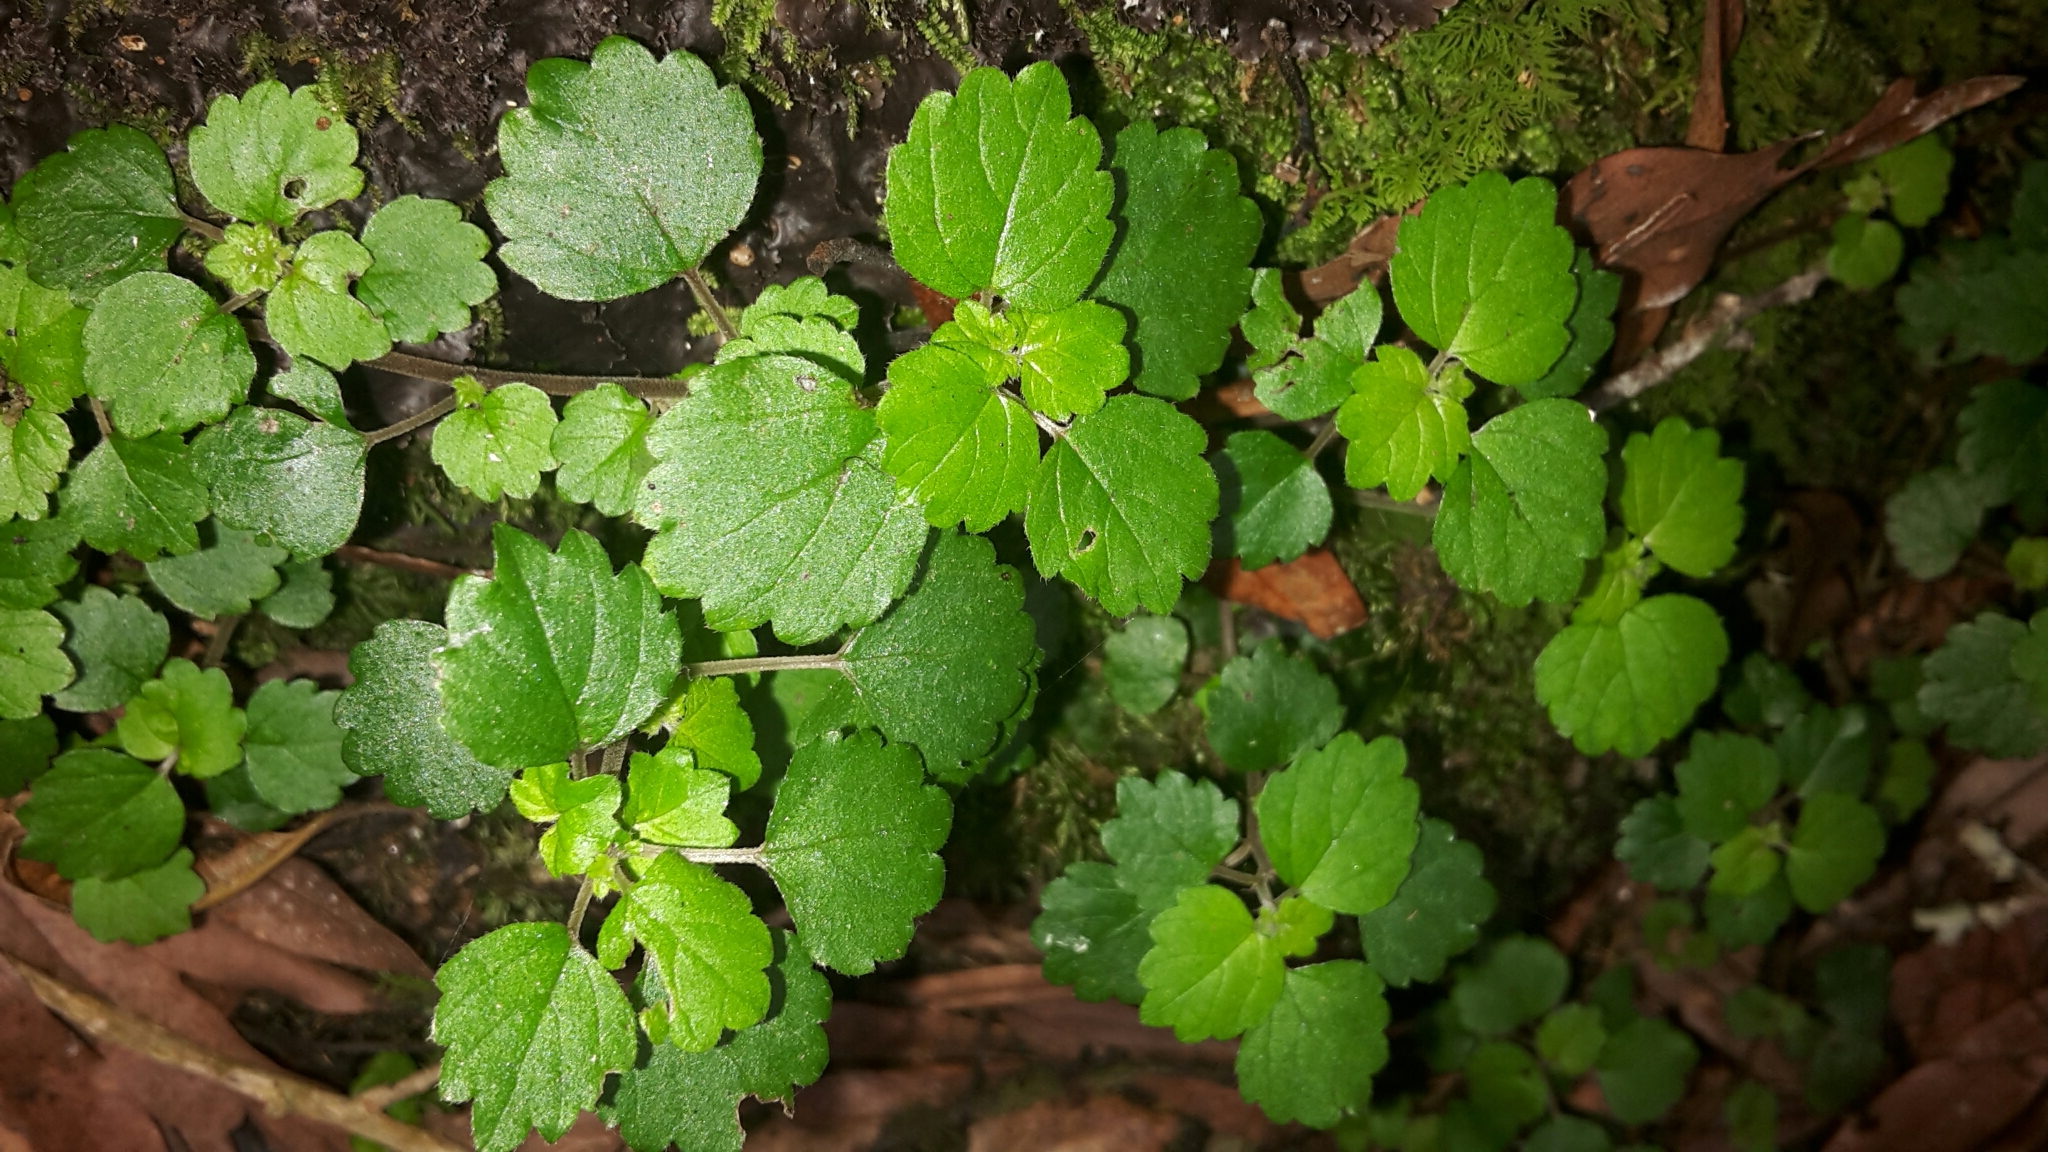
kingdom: Plantae
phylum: Tracheophyta
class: Magnoliopsida
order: Rosales
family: Urticaceae
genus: Australina
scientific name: Australina pusilla
